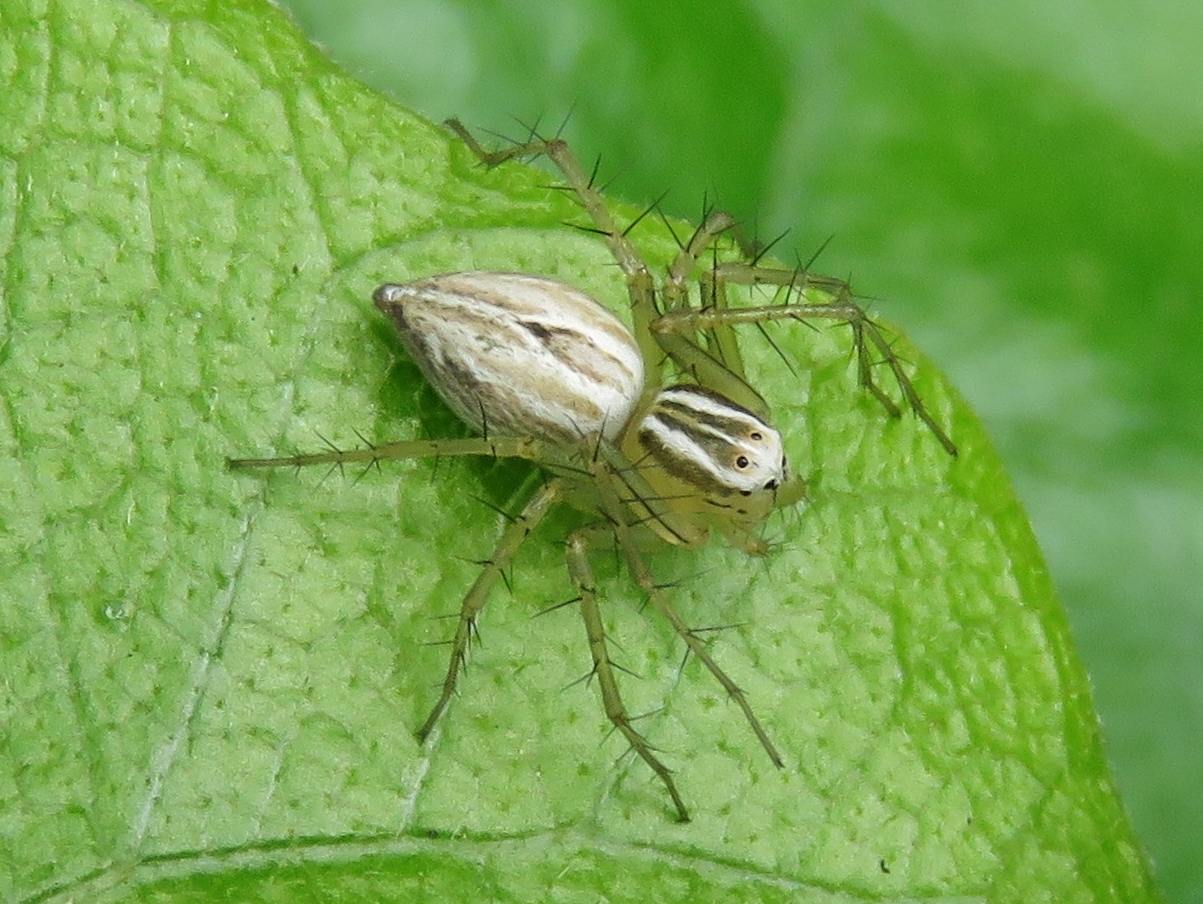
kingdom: Animalia
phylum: Arthropoda
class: Arachnida
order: Araneae
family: Oxyopidae
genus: Oxyopes
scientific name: Oxyopes salticus
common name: Lynx spiders
